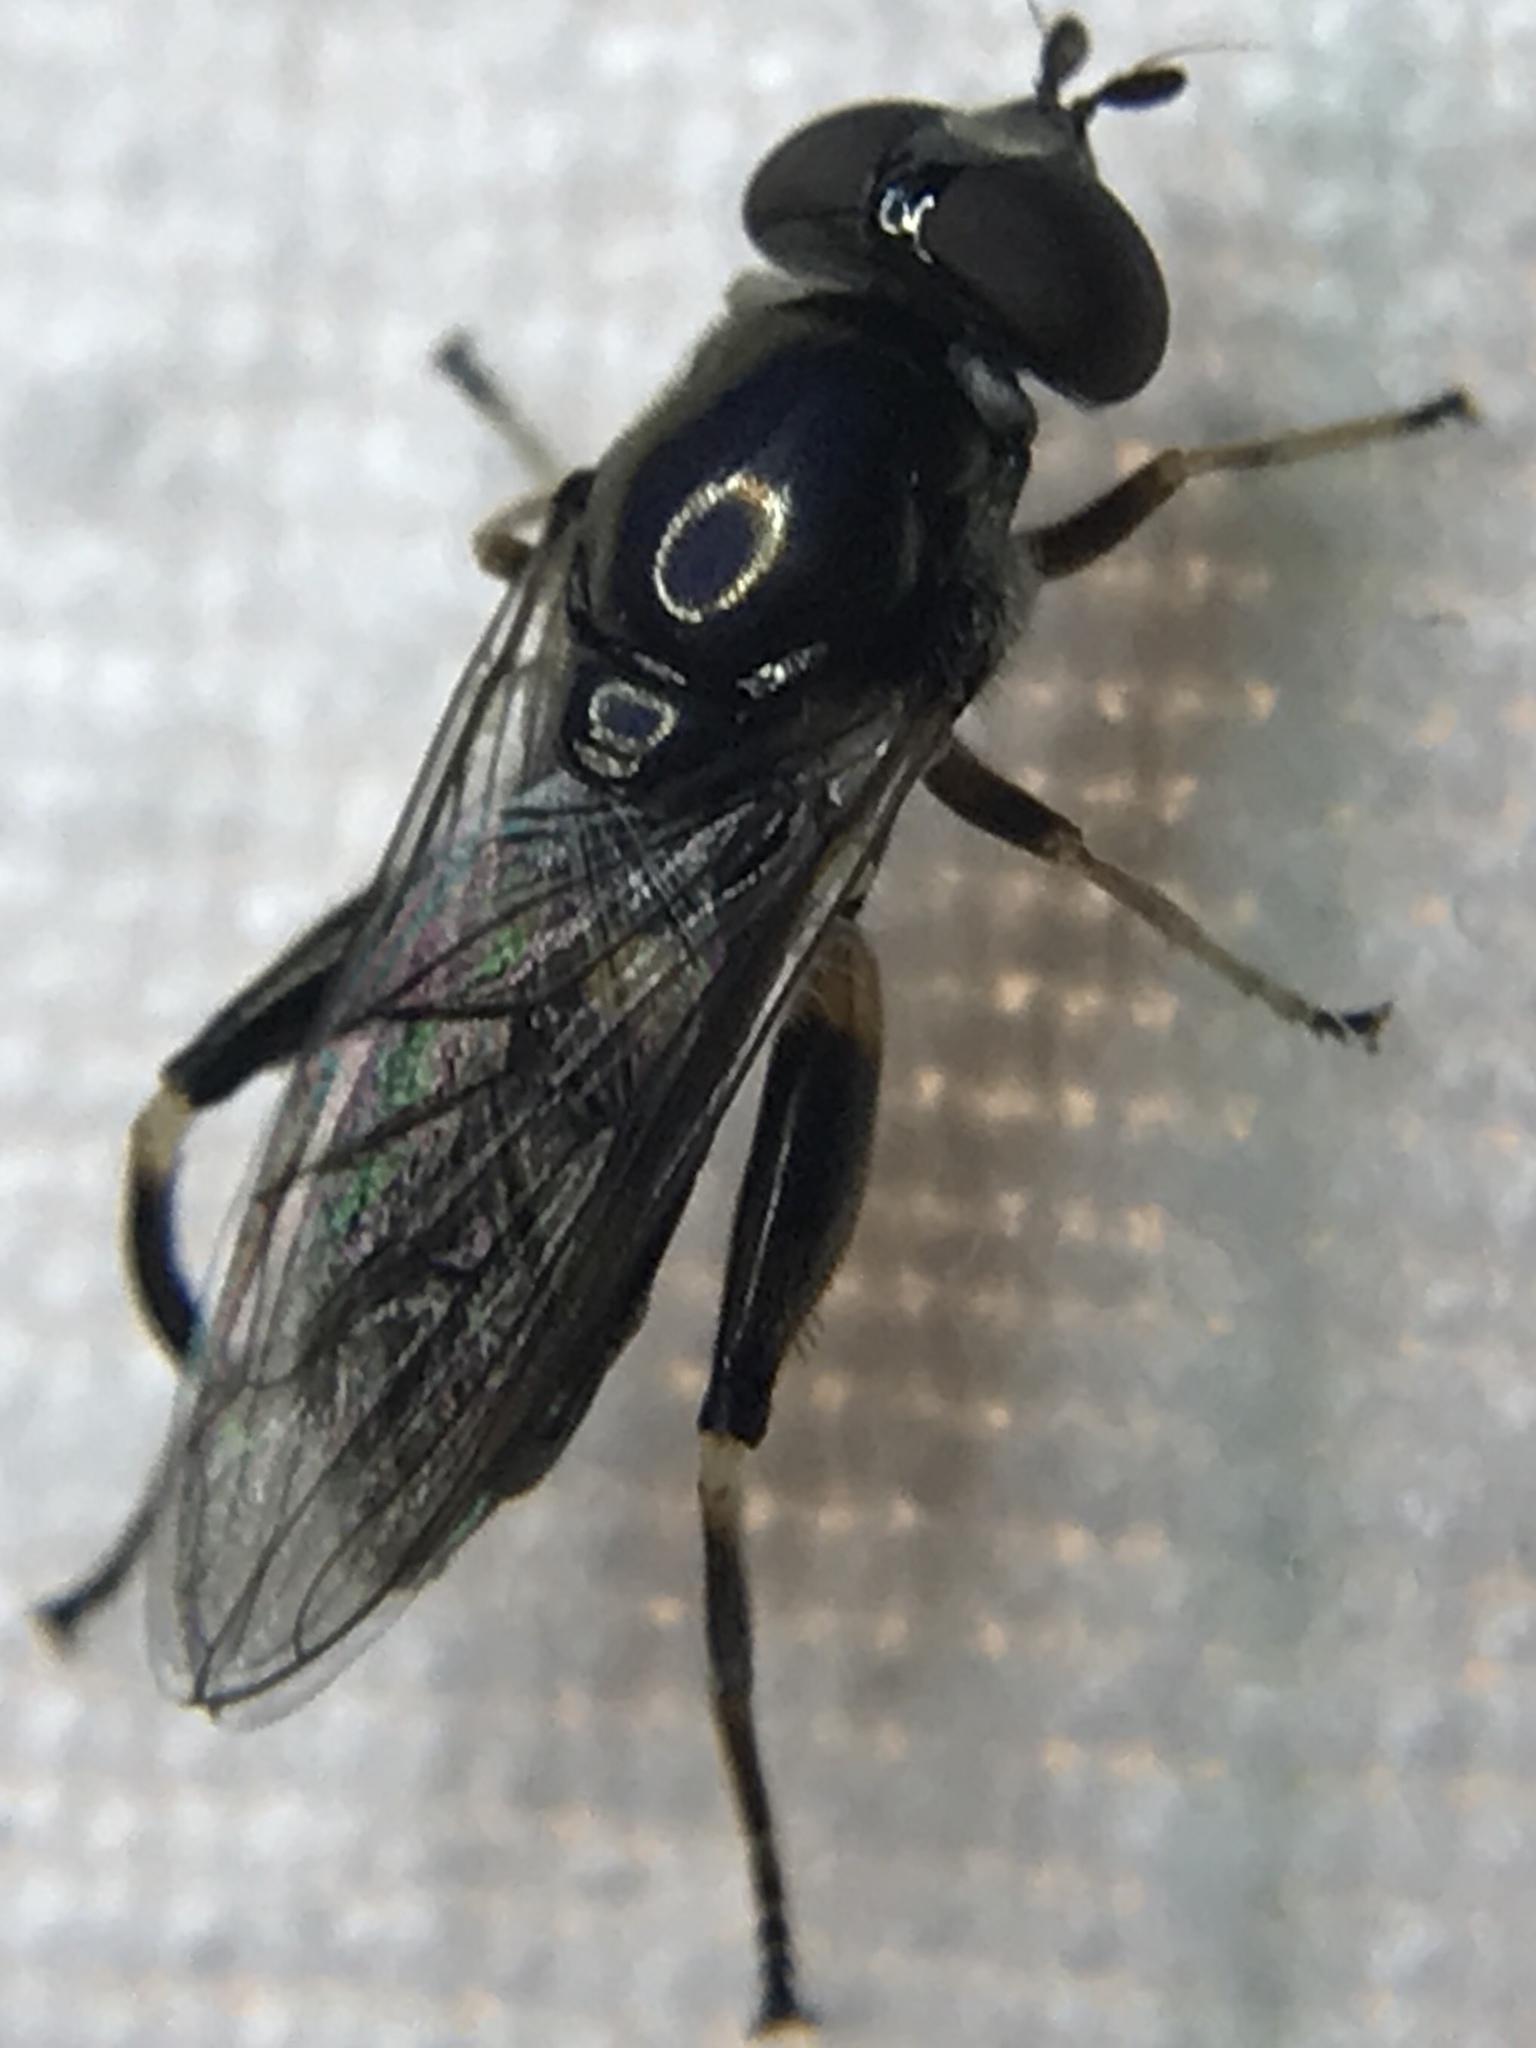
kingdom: Animalia
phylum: Arthropoda
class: Insecta
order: Diptera
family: Syrphidae
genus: Chalcosyrphus
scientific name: Chalcosyrphus metallicus
